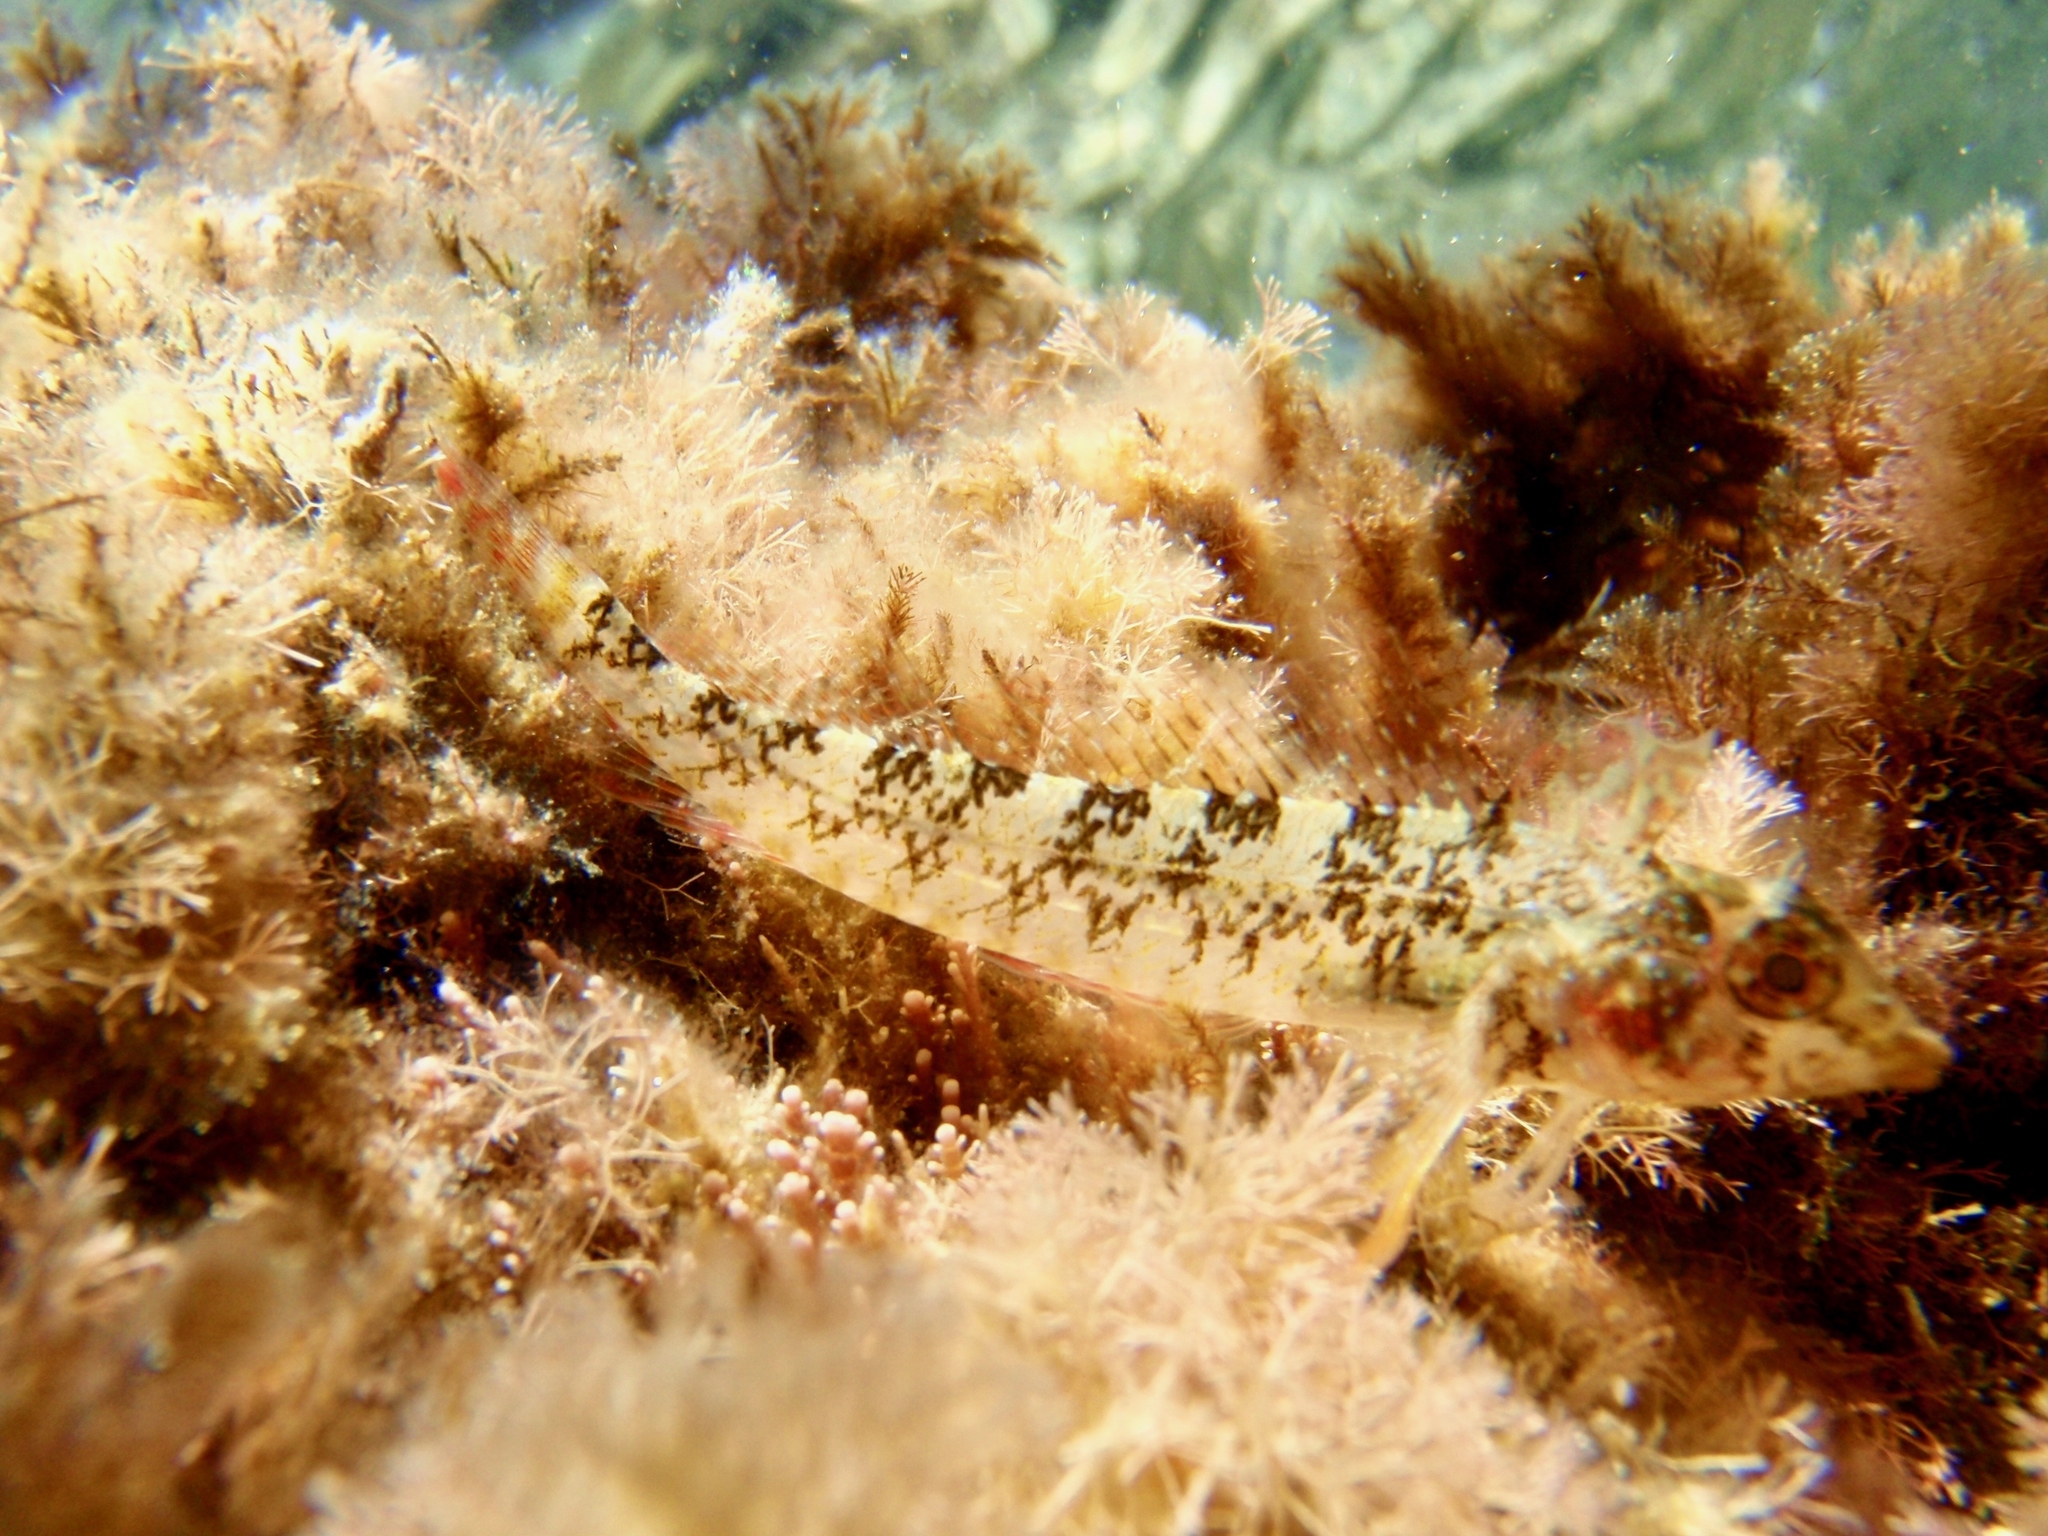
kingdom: Animalia
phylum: Chordata
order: Perciformes
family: Tripterygiidae
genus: Tripterygion
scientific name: Tripterygion tripteronotum
